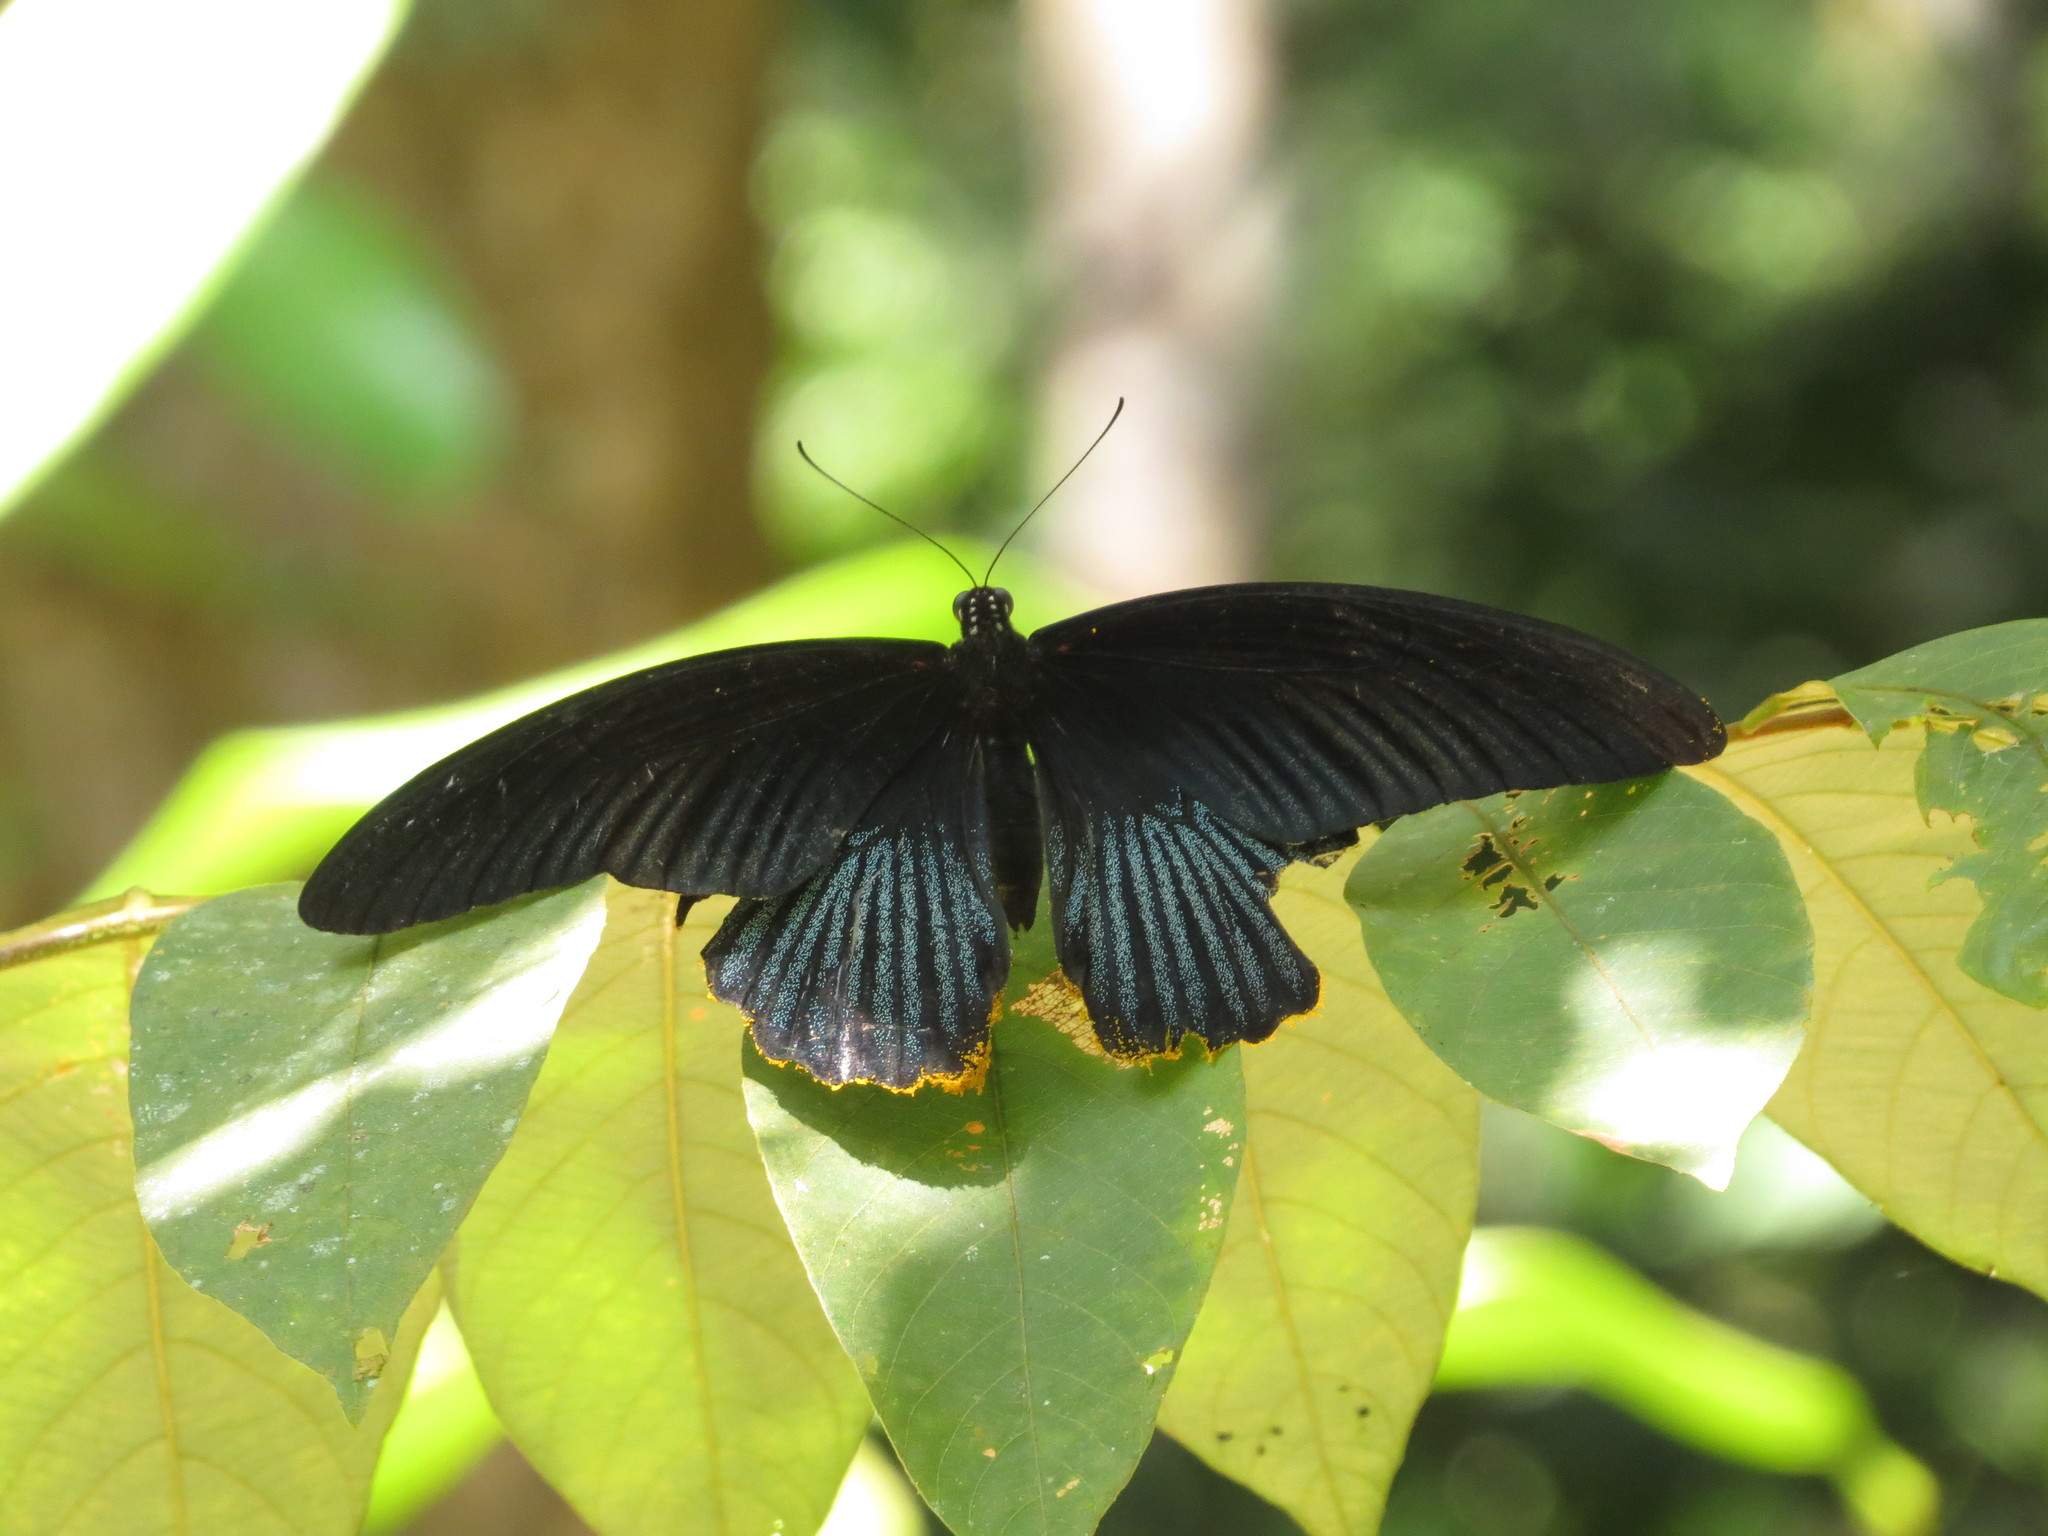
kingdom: Animalia
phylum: Arthropoda
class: Insecta
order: Lepidoptera
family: Papilionidae
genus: Papilio
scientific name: Papilio memnon
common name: Great mormon
